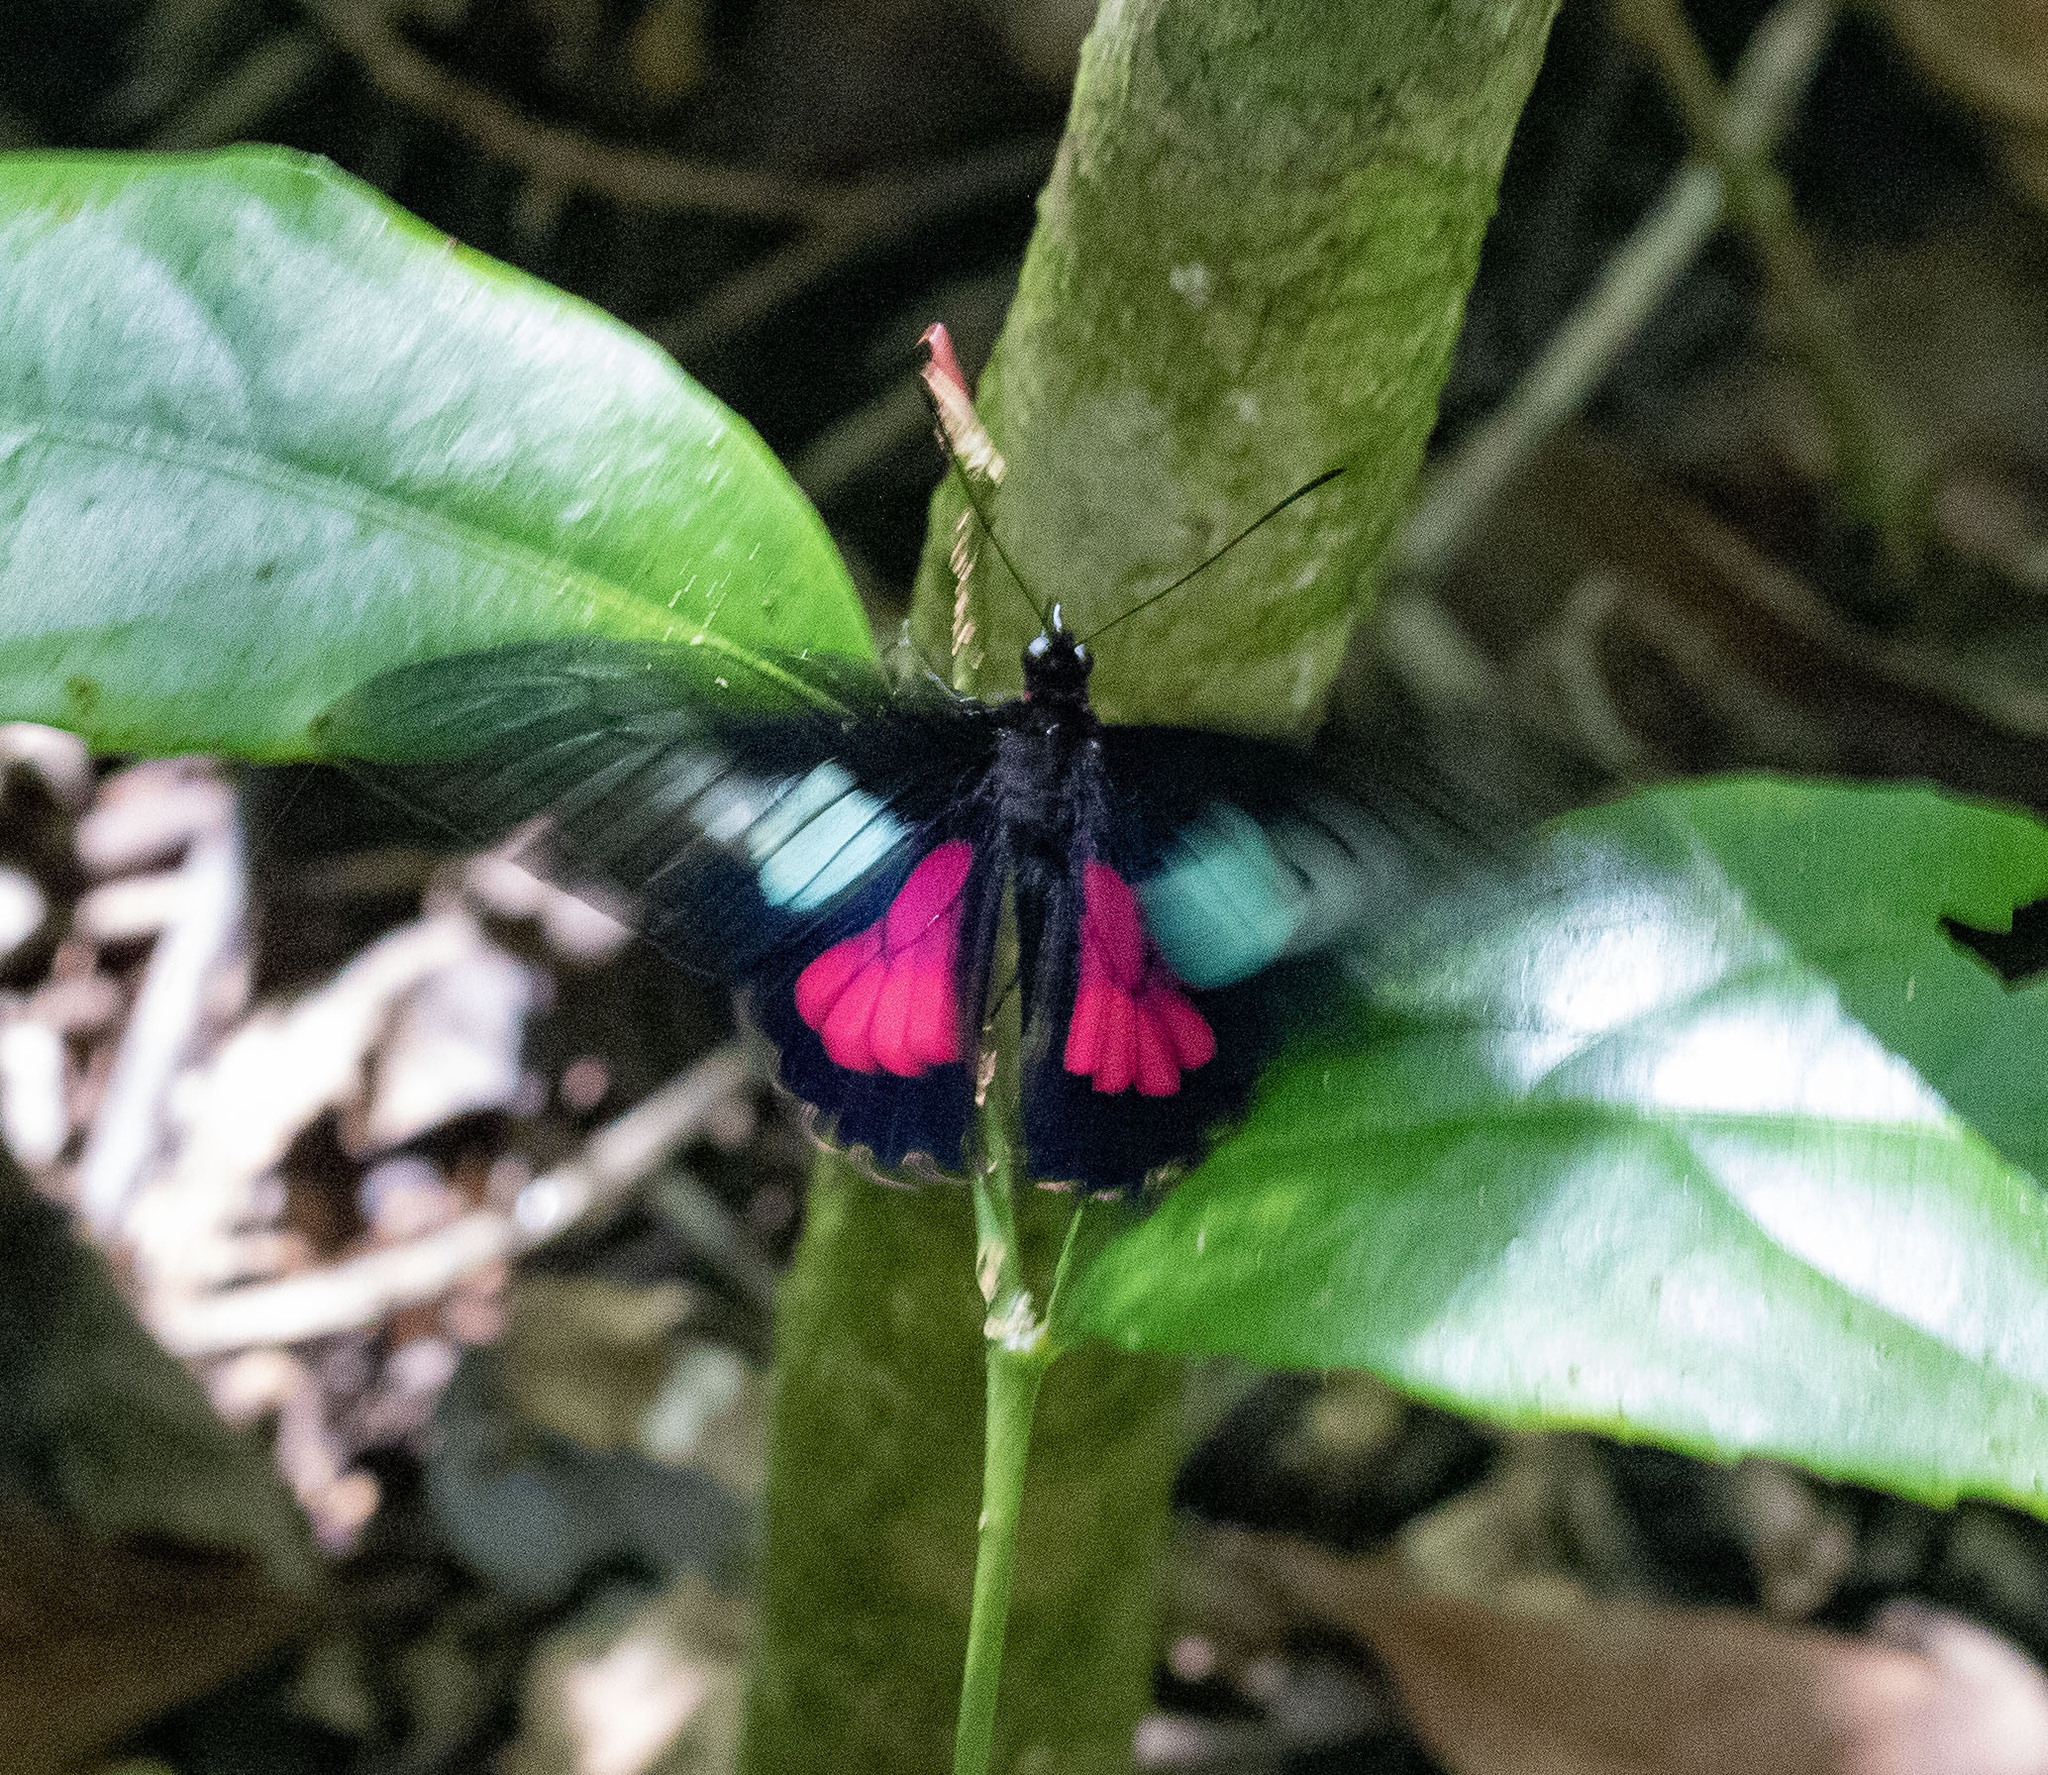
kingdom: Animalia
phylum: Arthropoda
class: Insecta
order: Lepidoptera
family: Papilionidae
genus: Parides
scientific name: Parides neophilus
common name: Spear-winged cattle heart
